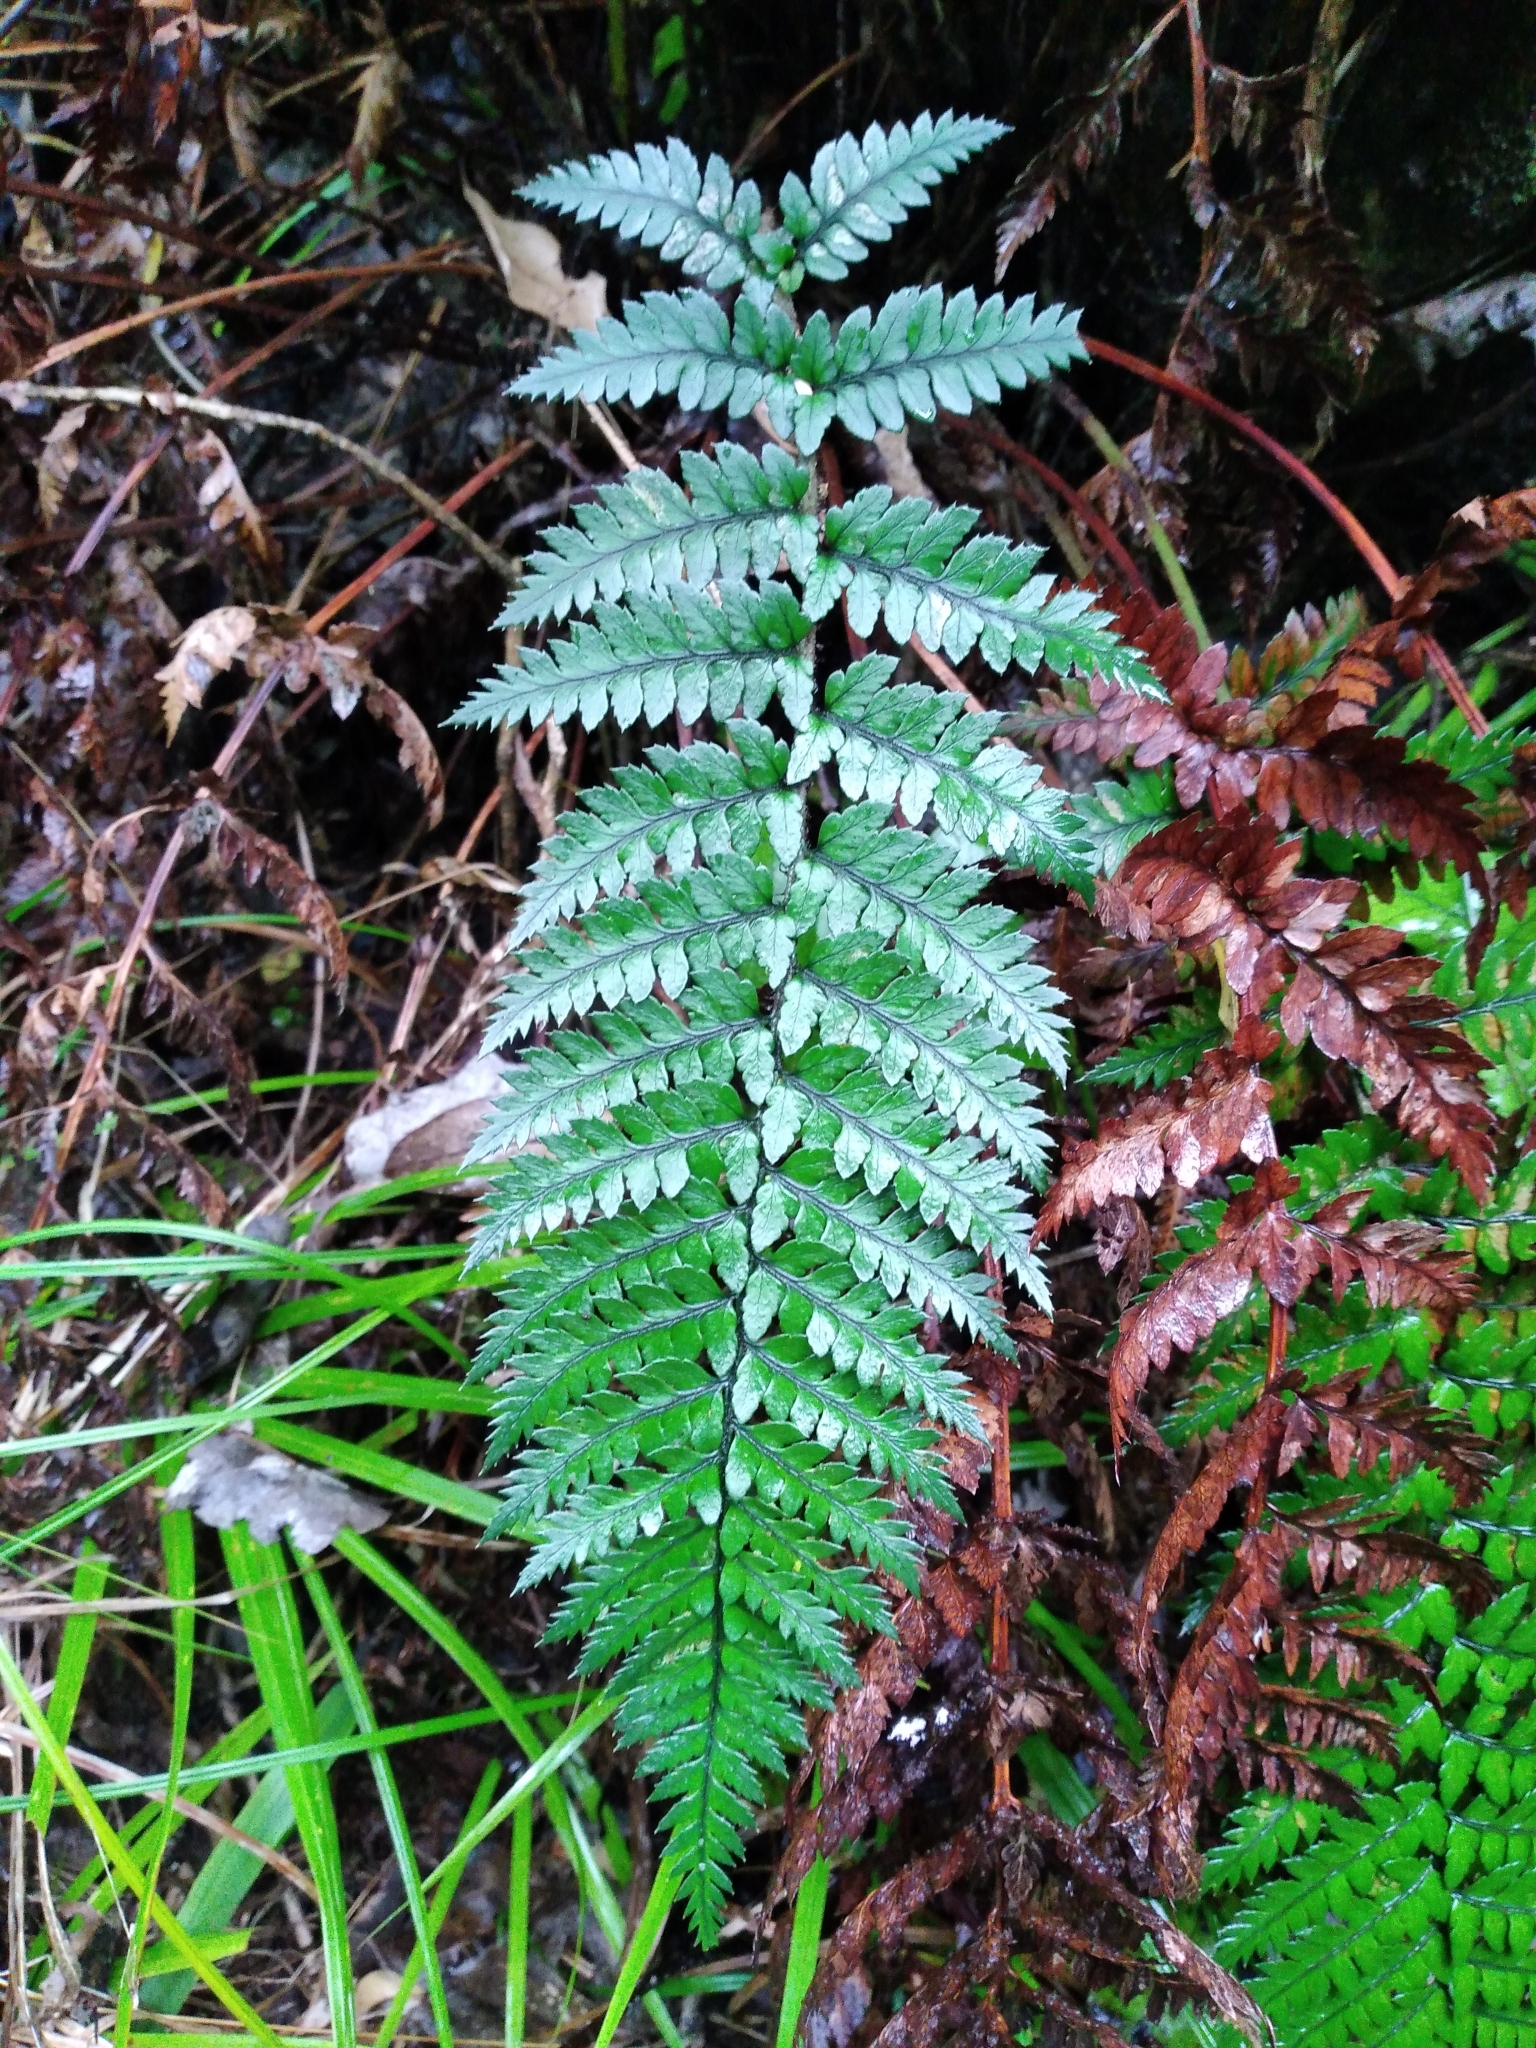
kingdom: Plantae
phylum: Tracheophyta
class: Polypodiopsida
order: Polypodiales
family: Dryopteridaceae
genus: Polystichum
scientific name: Polystichum neozelandicum
